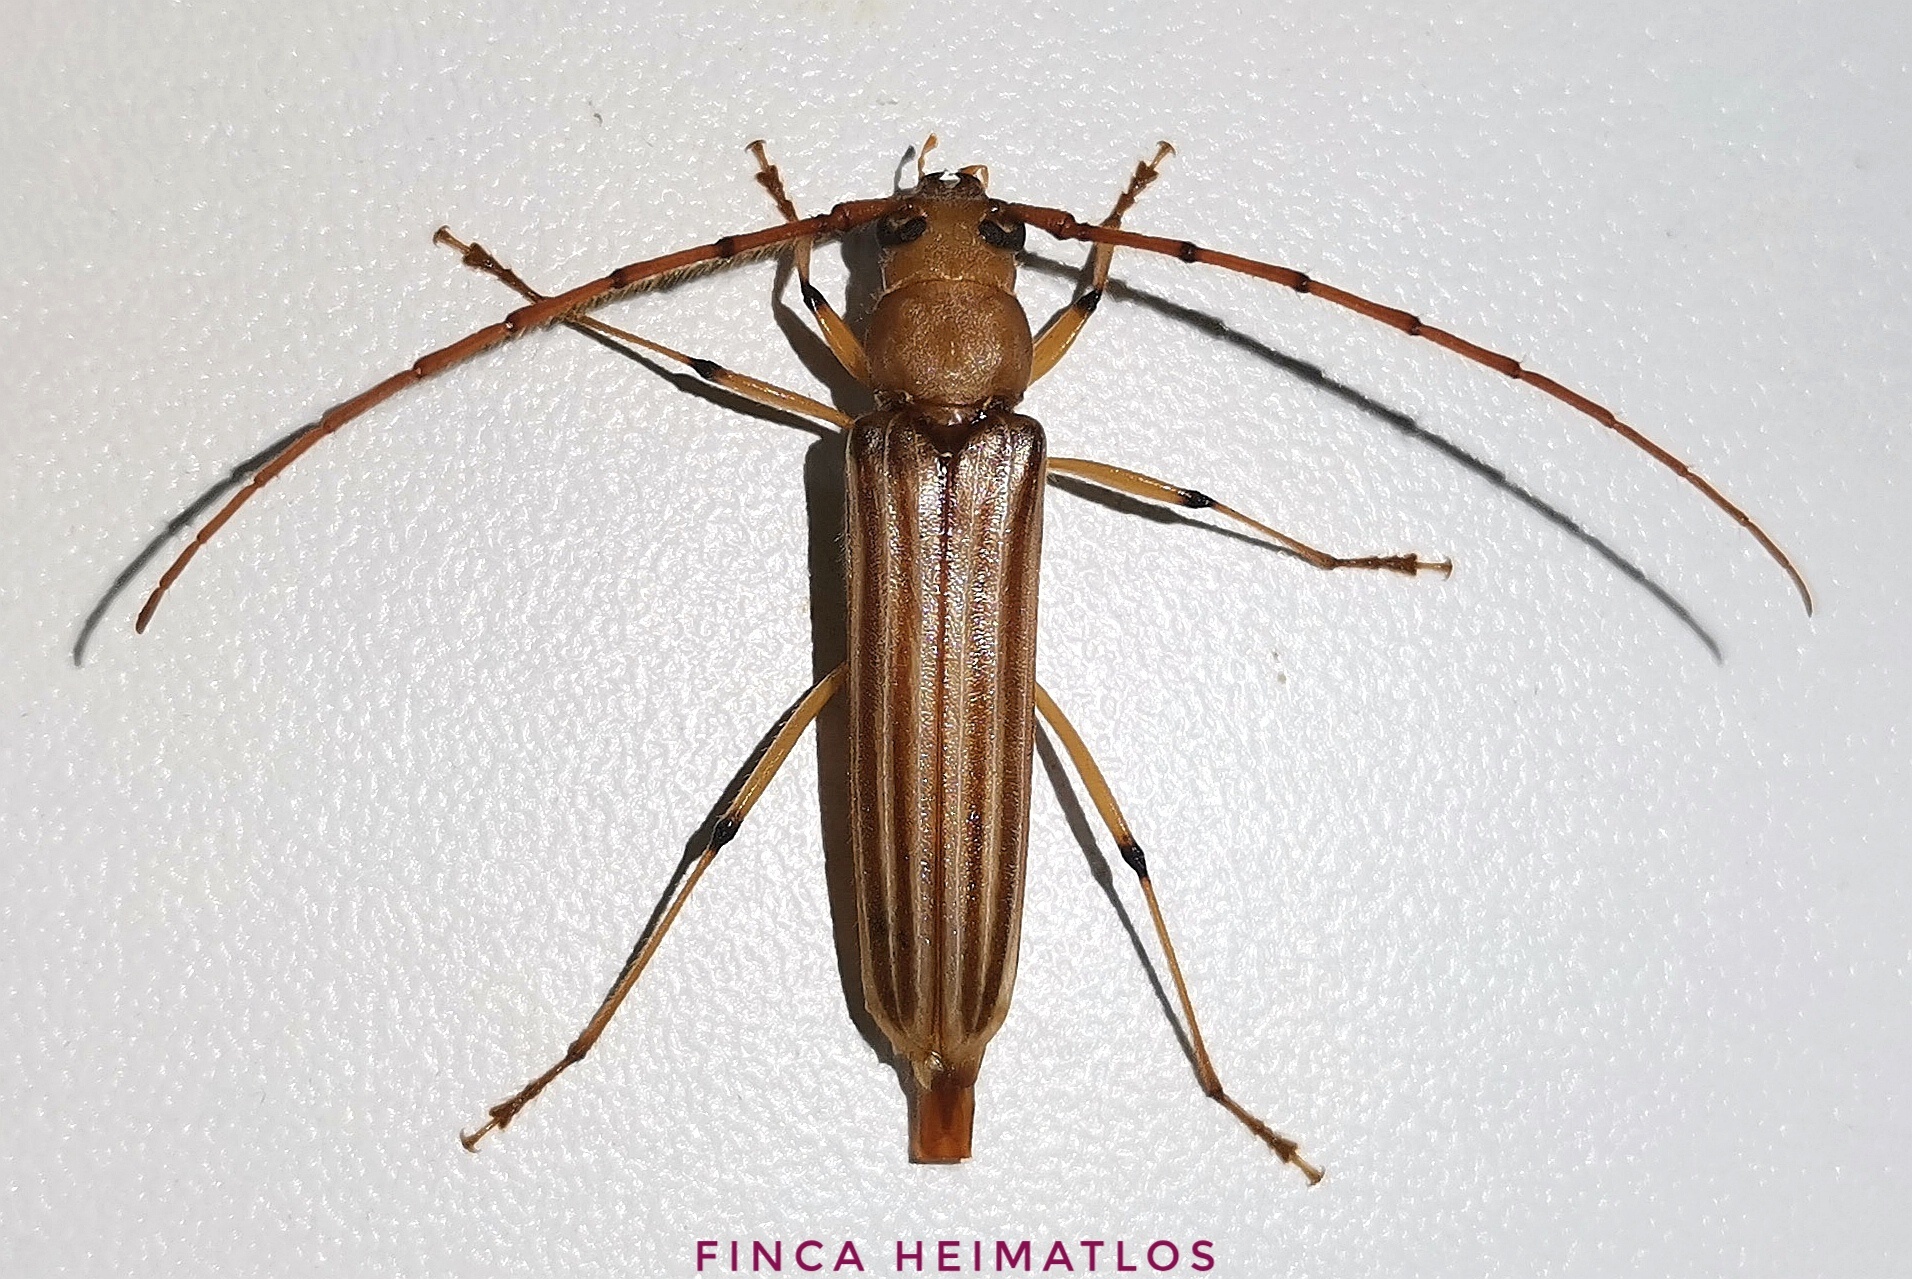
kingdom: Animalia
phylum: Arthropoda
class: Insecta
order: Coleoptera
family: Cerambycidae
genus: Malacopterus
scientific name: Malacopterus tenellus
